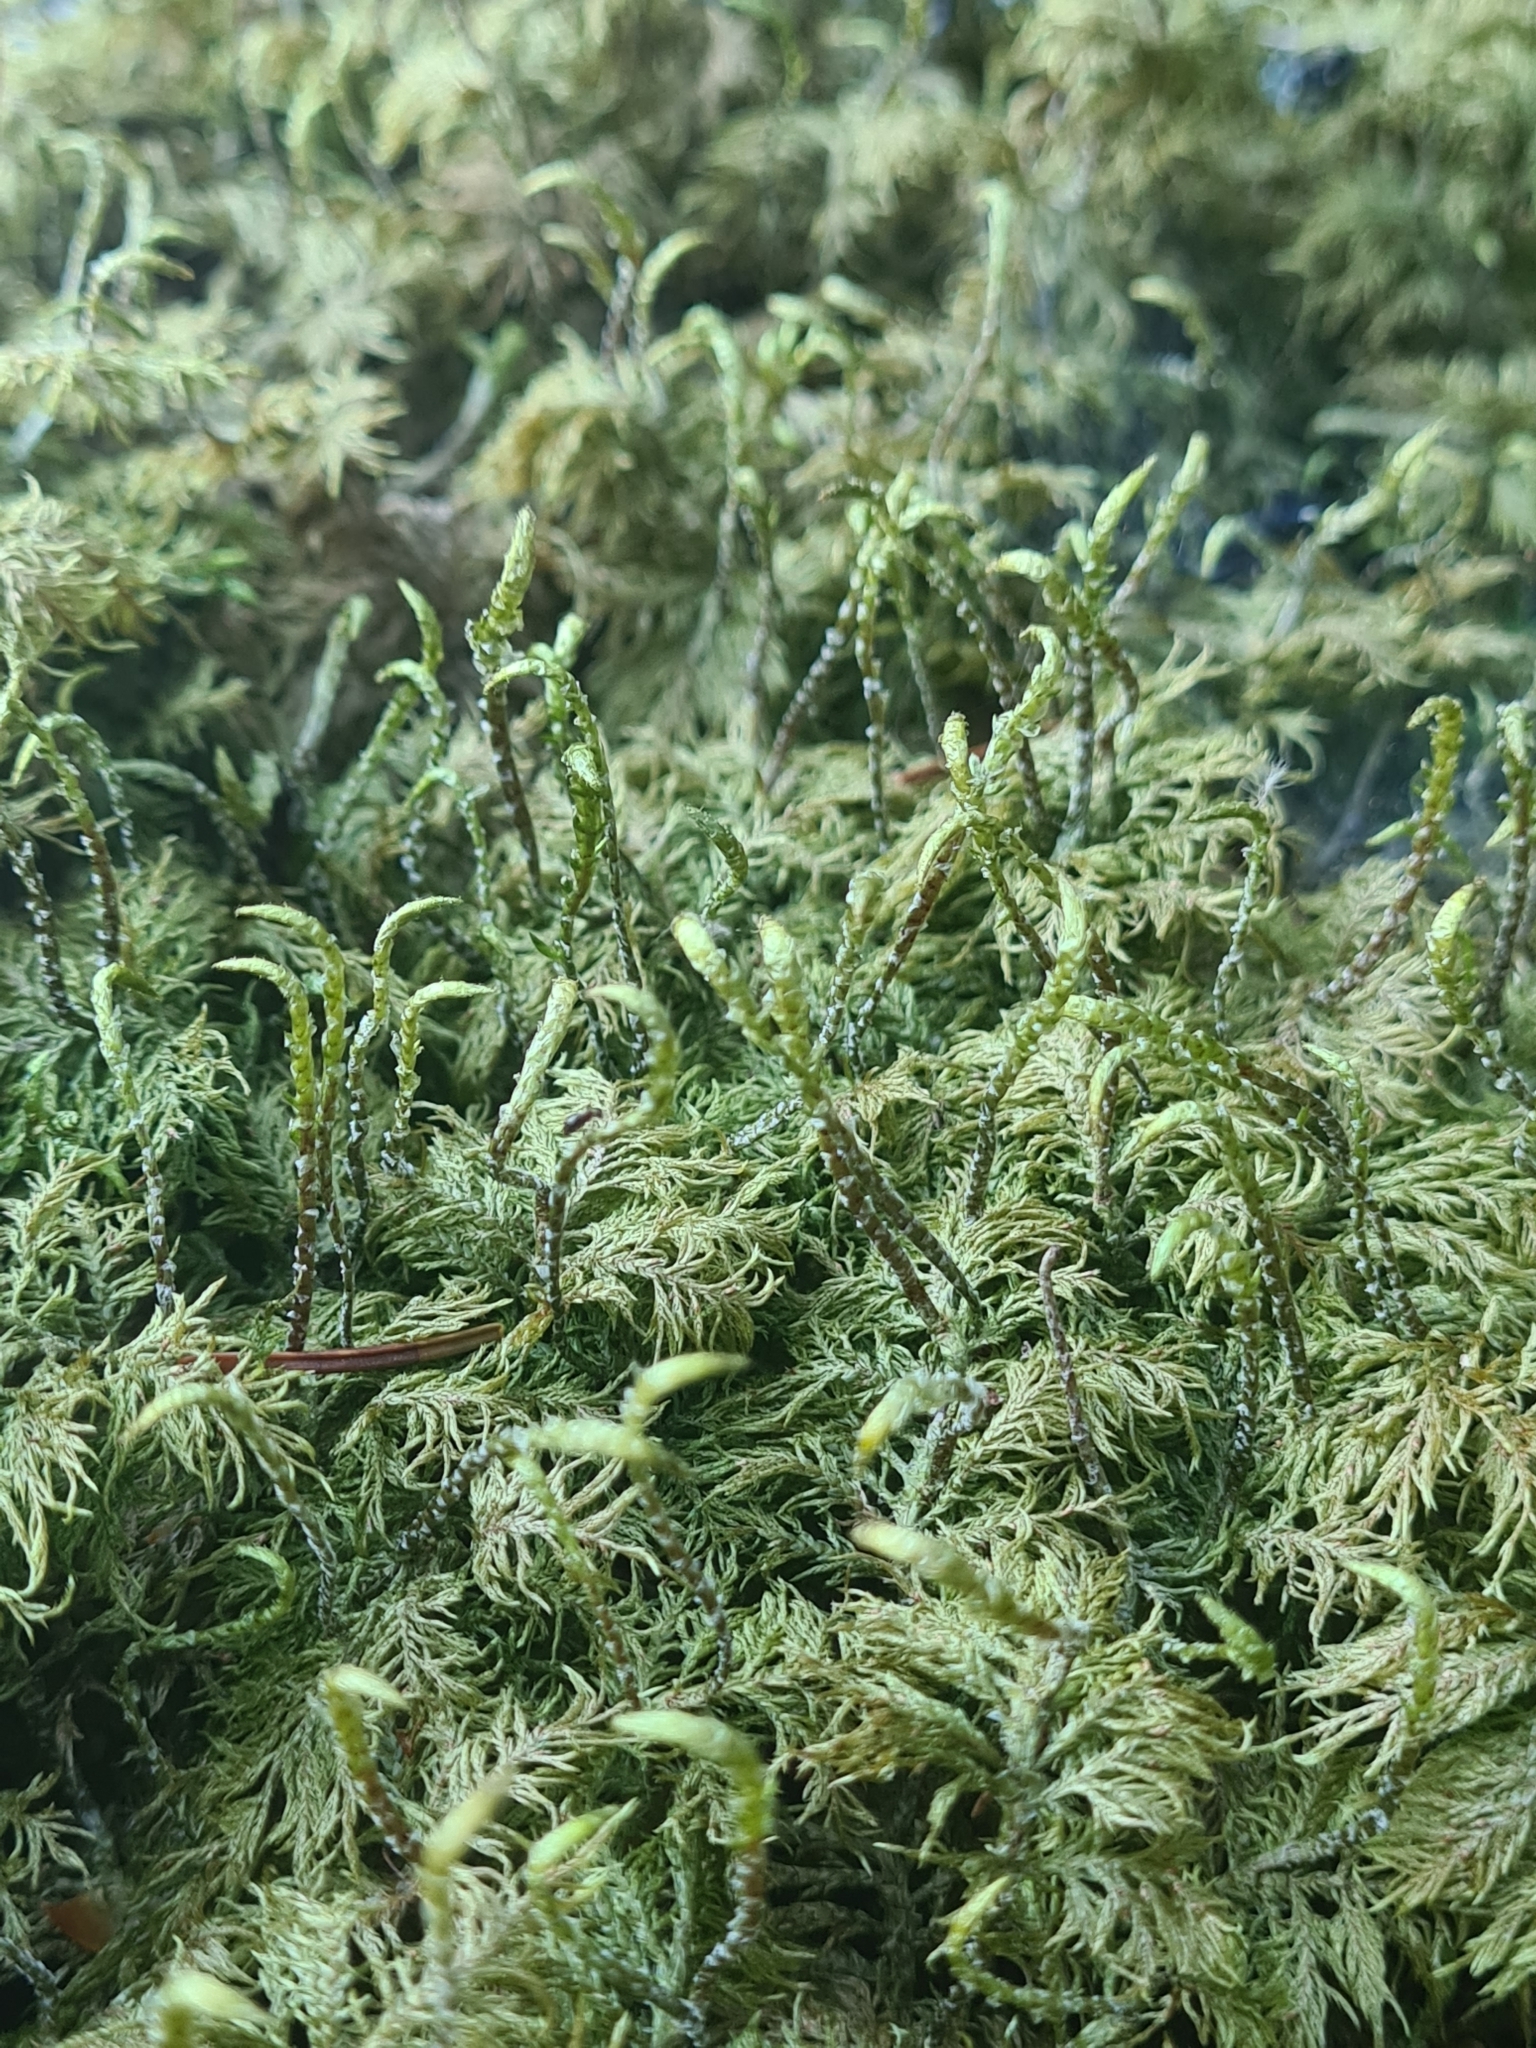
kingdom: Plantae
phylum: Bryophyta
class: Bryopsida
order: Hypnales
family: Hylocomiaceae
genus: Hylocomium
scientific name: Hylocomium splendens
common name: Stairstep moss
